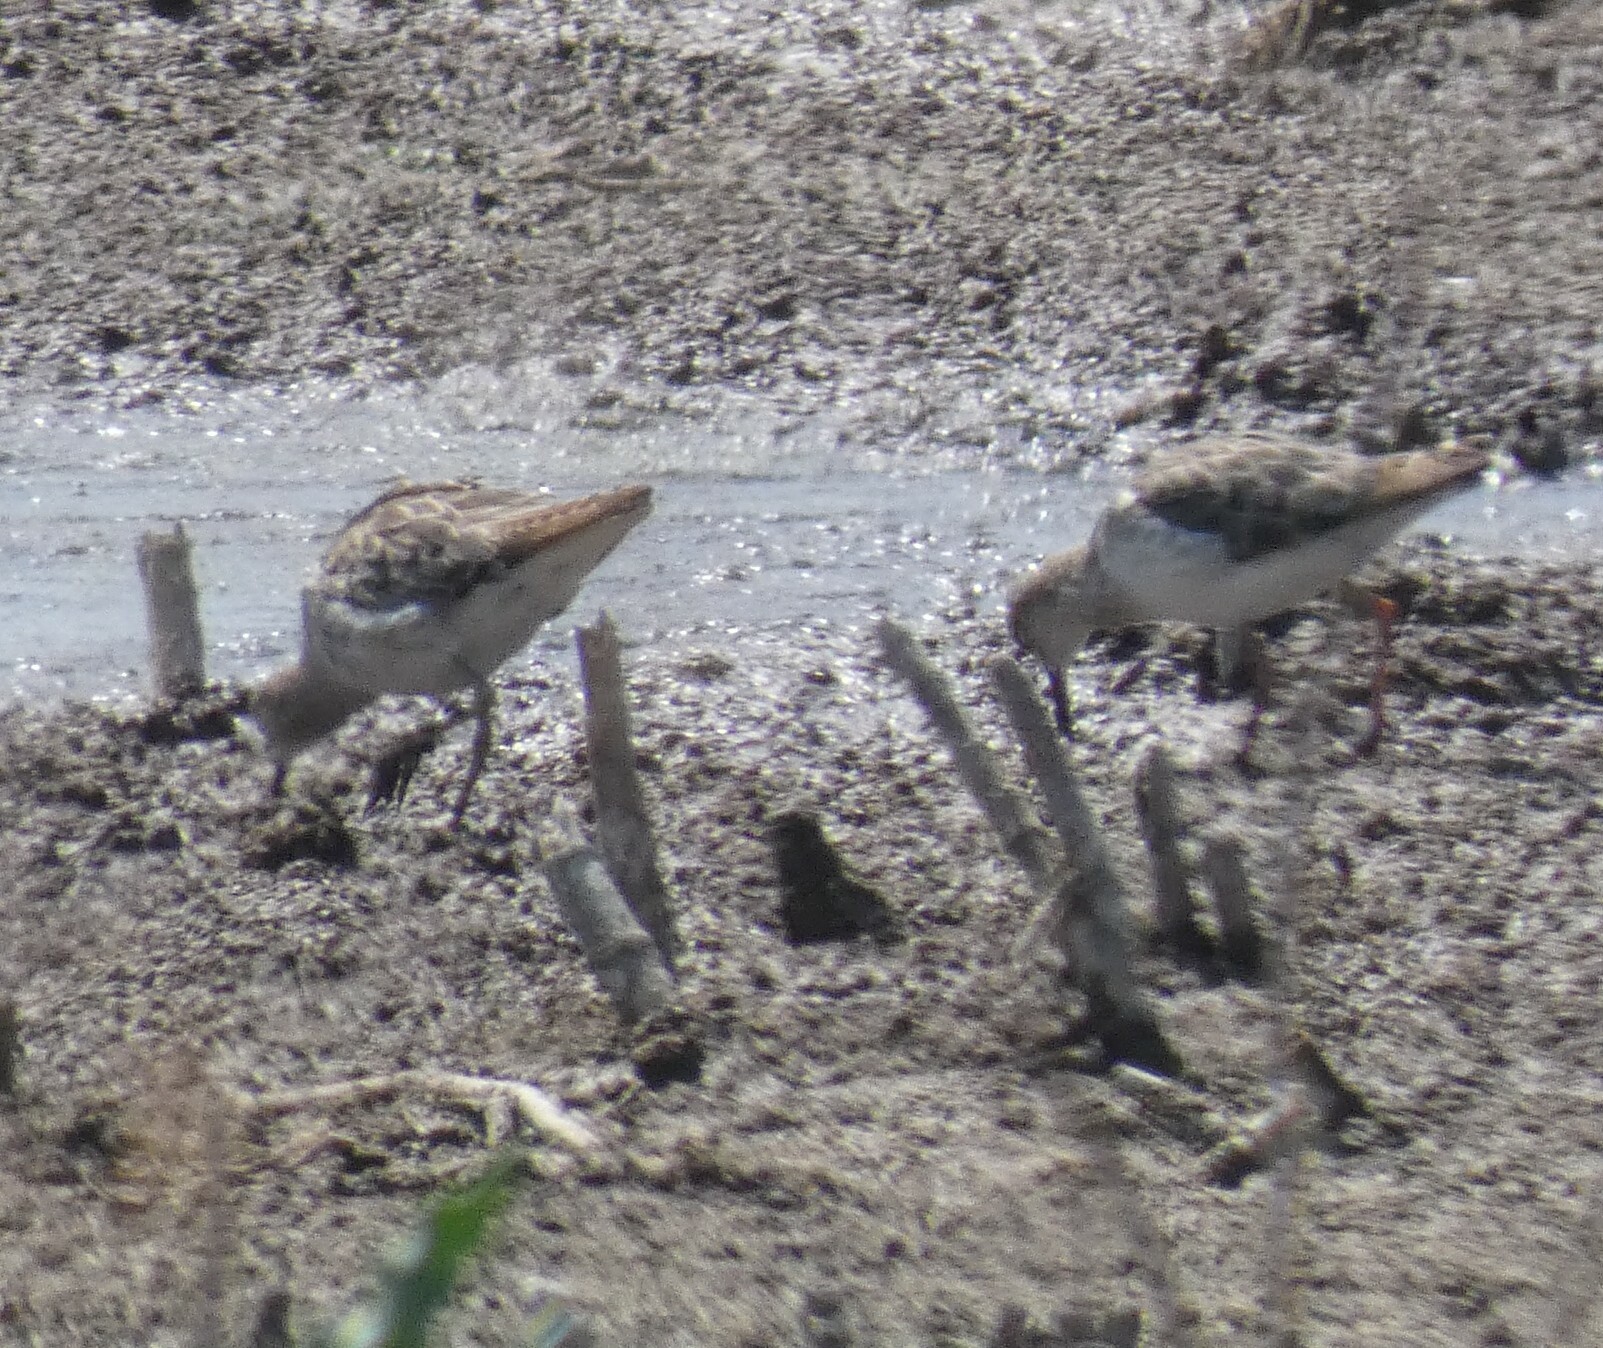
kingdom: Animalia
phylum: Chordata
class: Aves
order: Charadriiformes
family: Scolopacidae
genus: Calidris
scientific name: Calidris minuta
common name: Little stint
